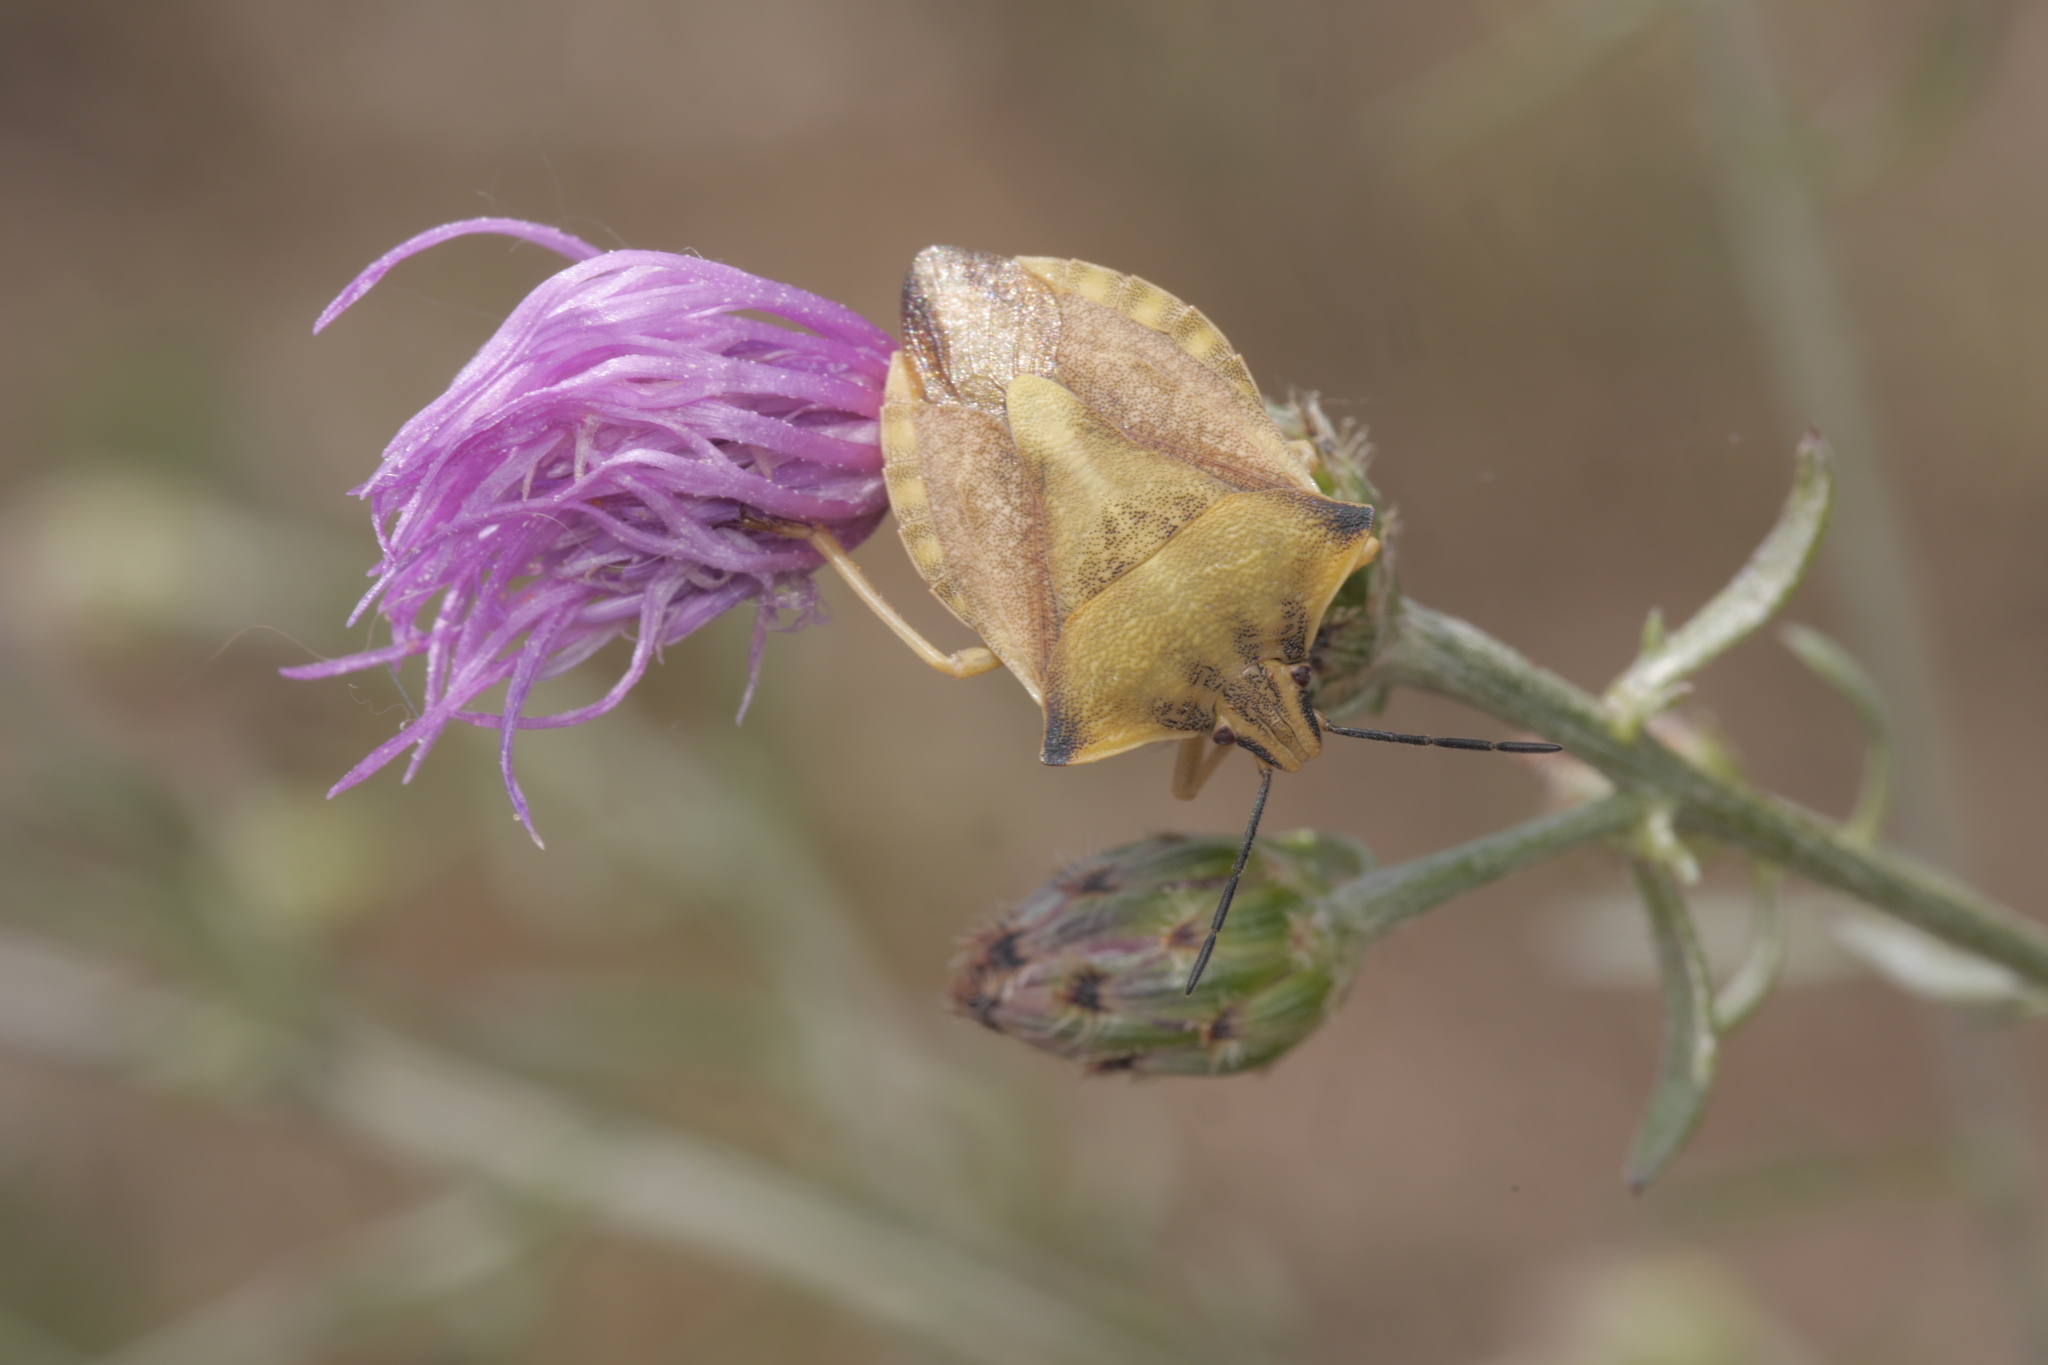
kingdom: Animalia
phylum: Arthropoda
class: Insecta
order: Hemiptera
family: Pentatomidae
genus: Carpocoris
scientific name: Carpocoris fuscispinus
